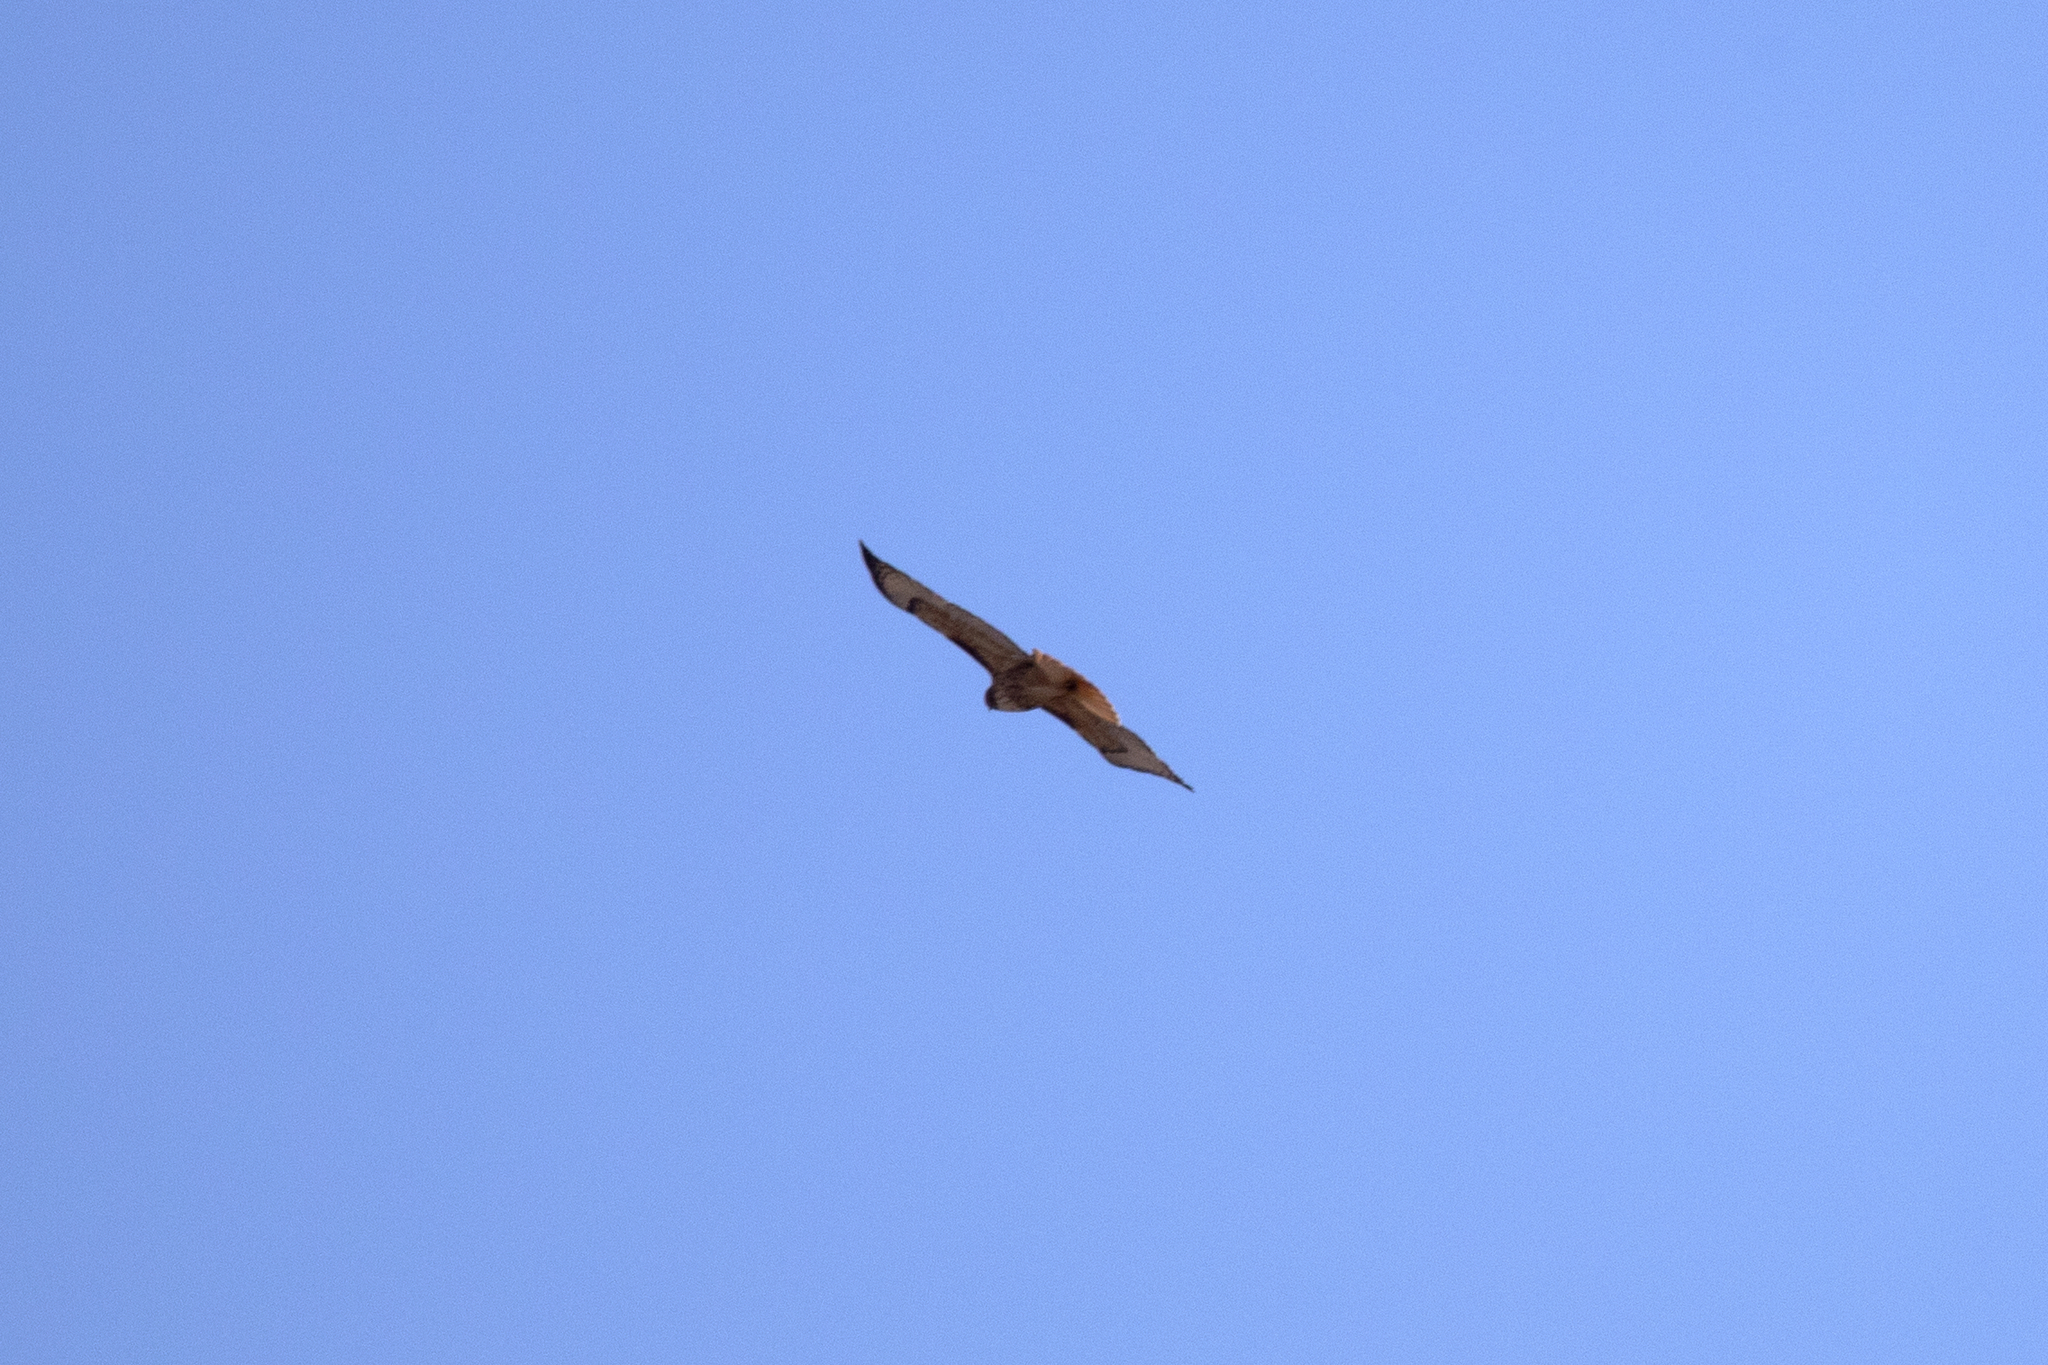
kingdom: Animalia
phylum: Chordata
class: Aves
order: Accipitriformes
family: Accipitridae
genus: Buteo
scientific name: Buteo jamaicensis
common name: Red-tailed hawk
